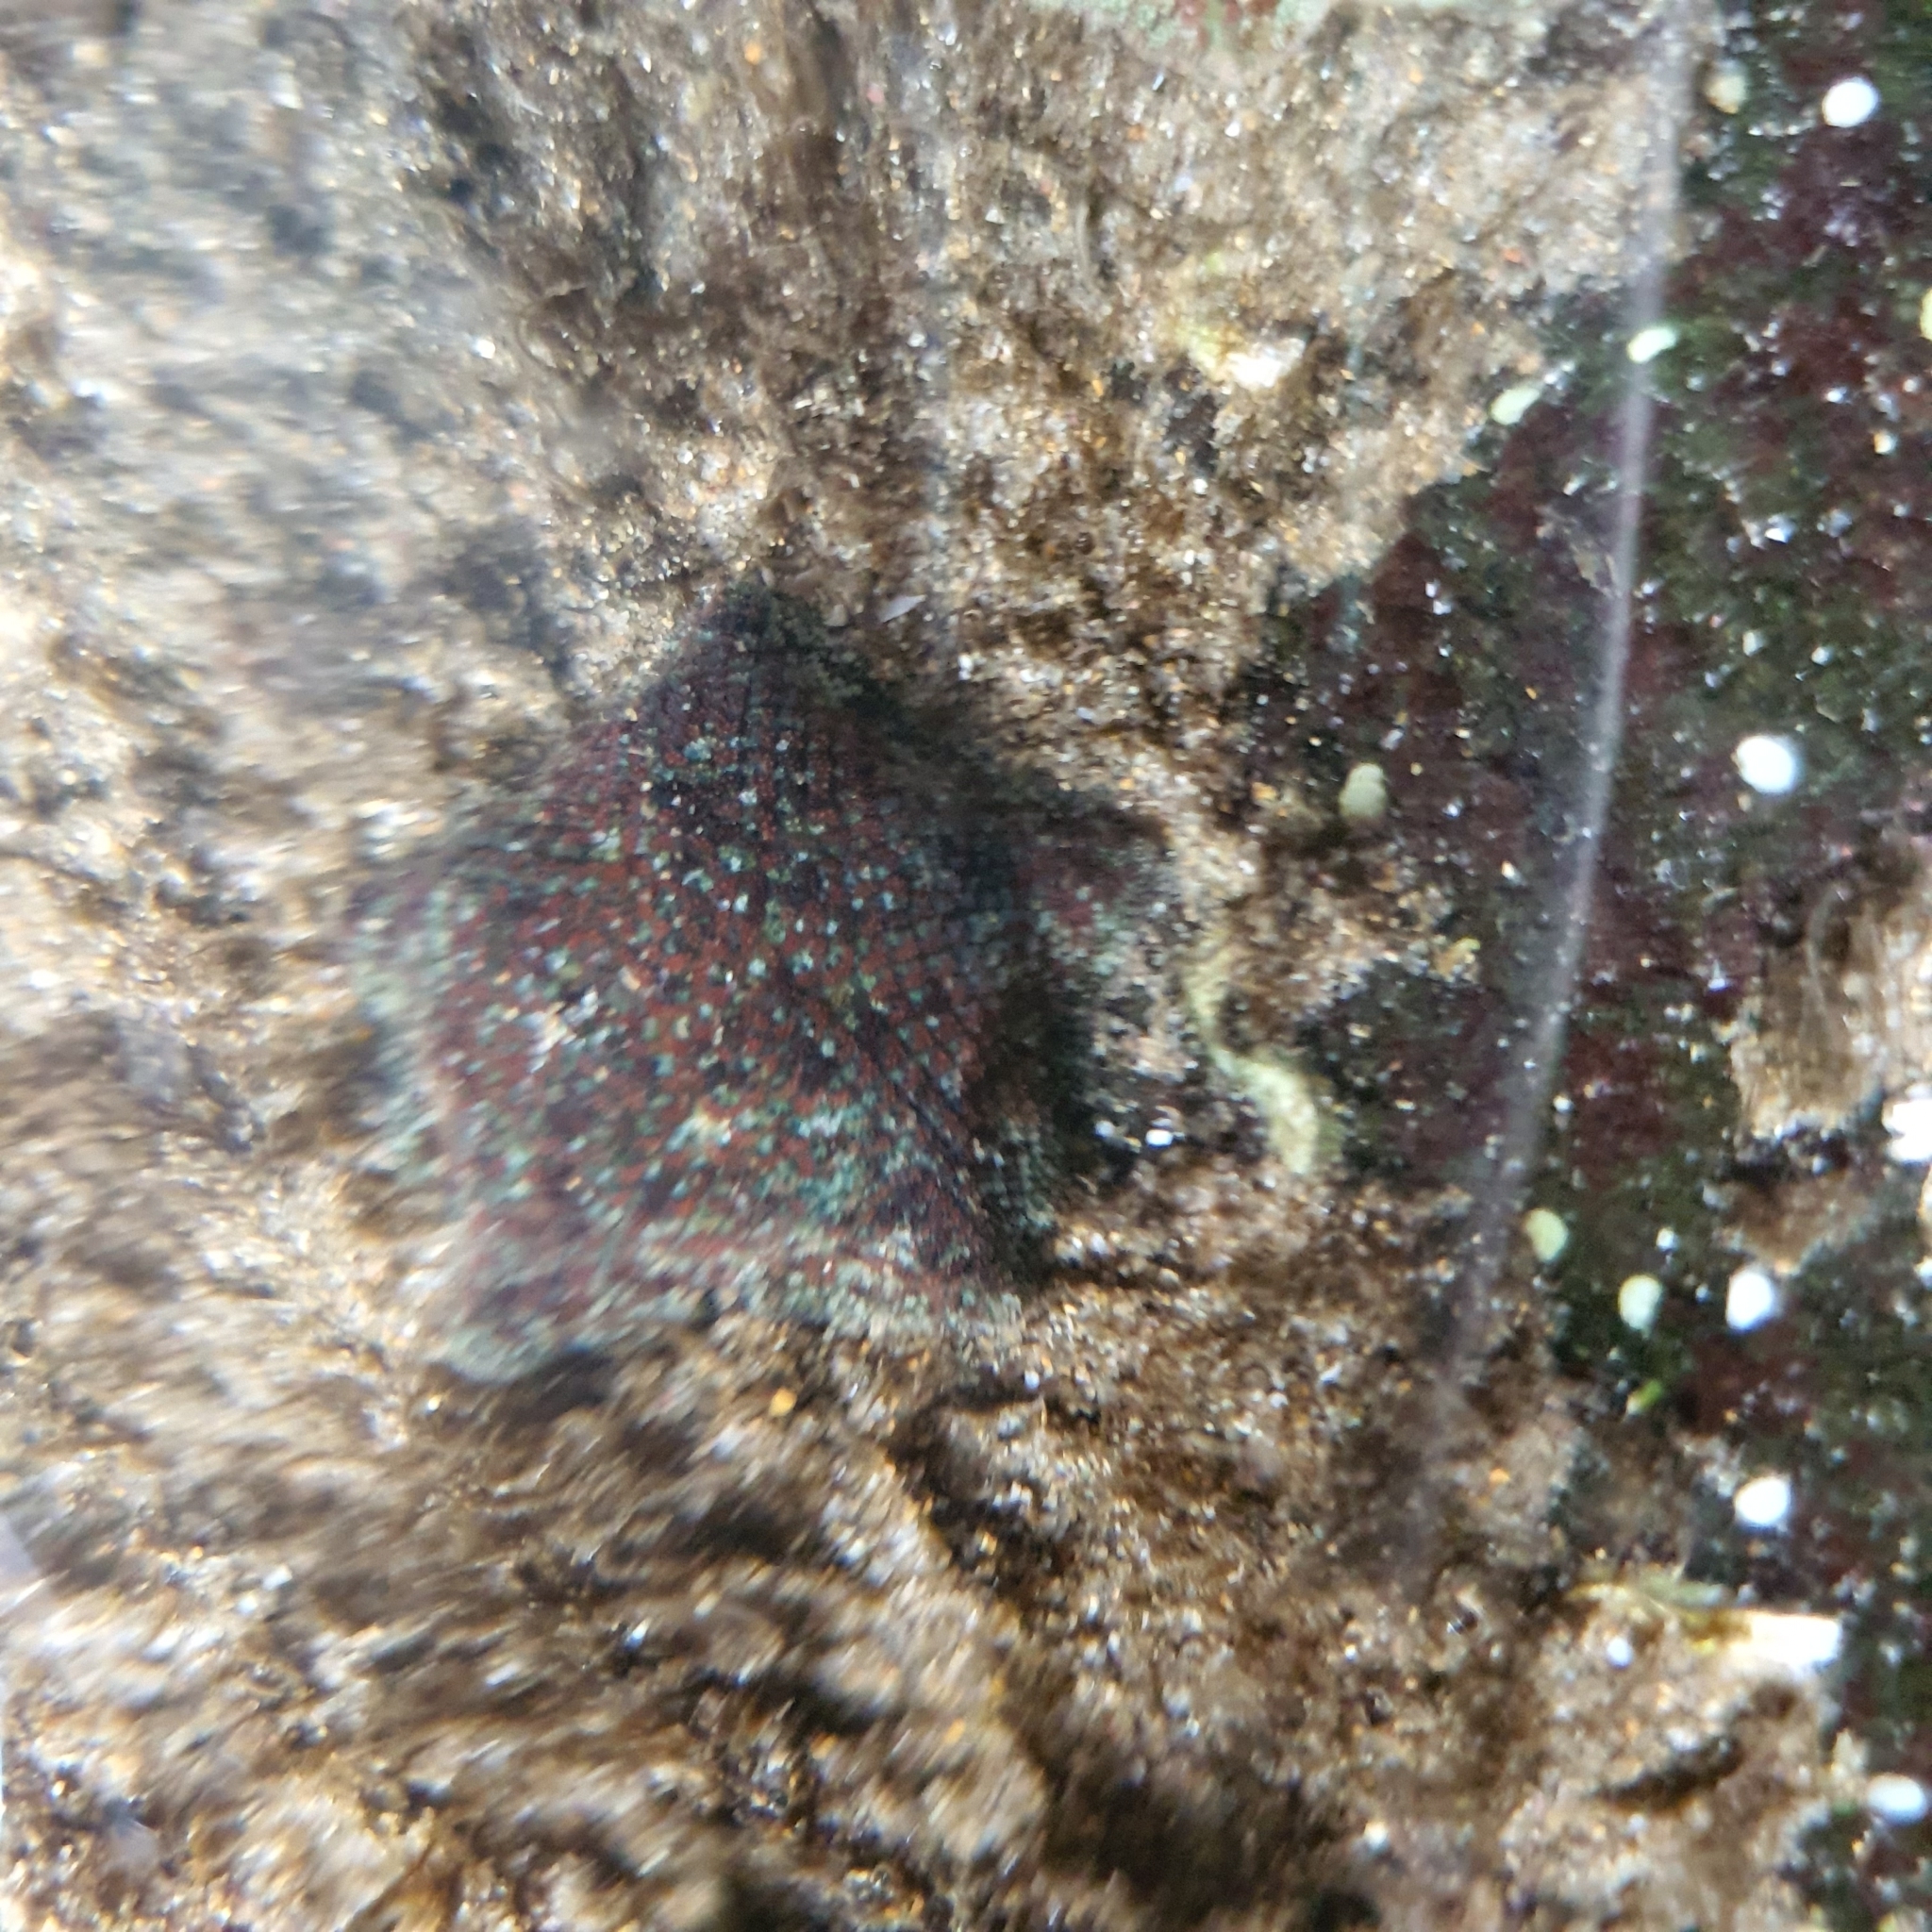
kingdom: Animalia
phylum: Echinodermata
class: Asteroidea
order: Valvatida
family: Asterinidae
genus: Parvulastra
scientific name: Parvulastra exigua
